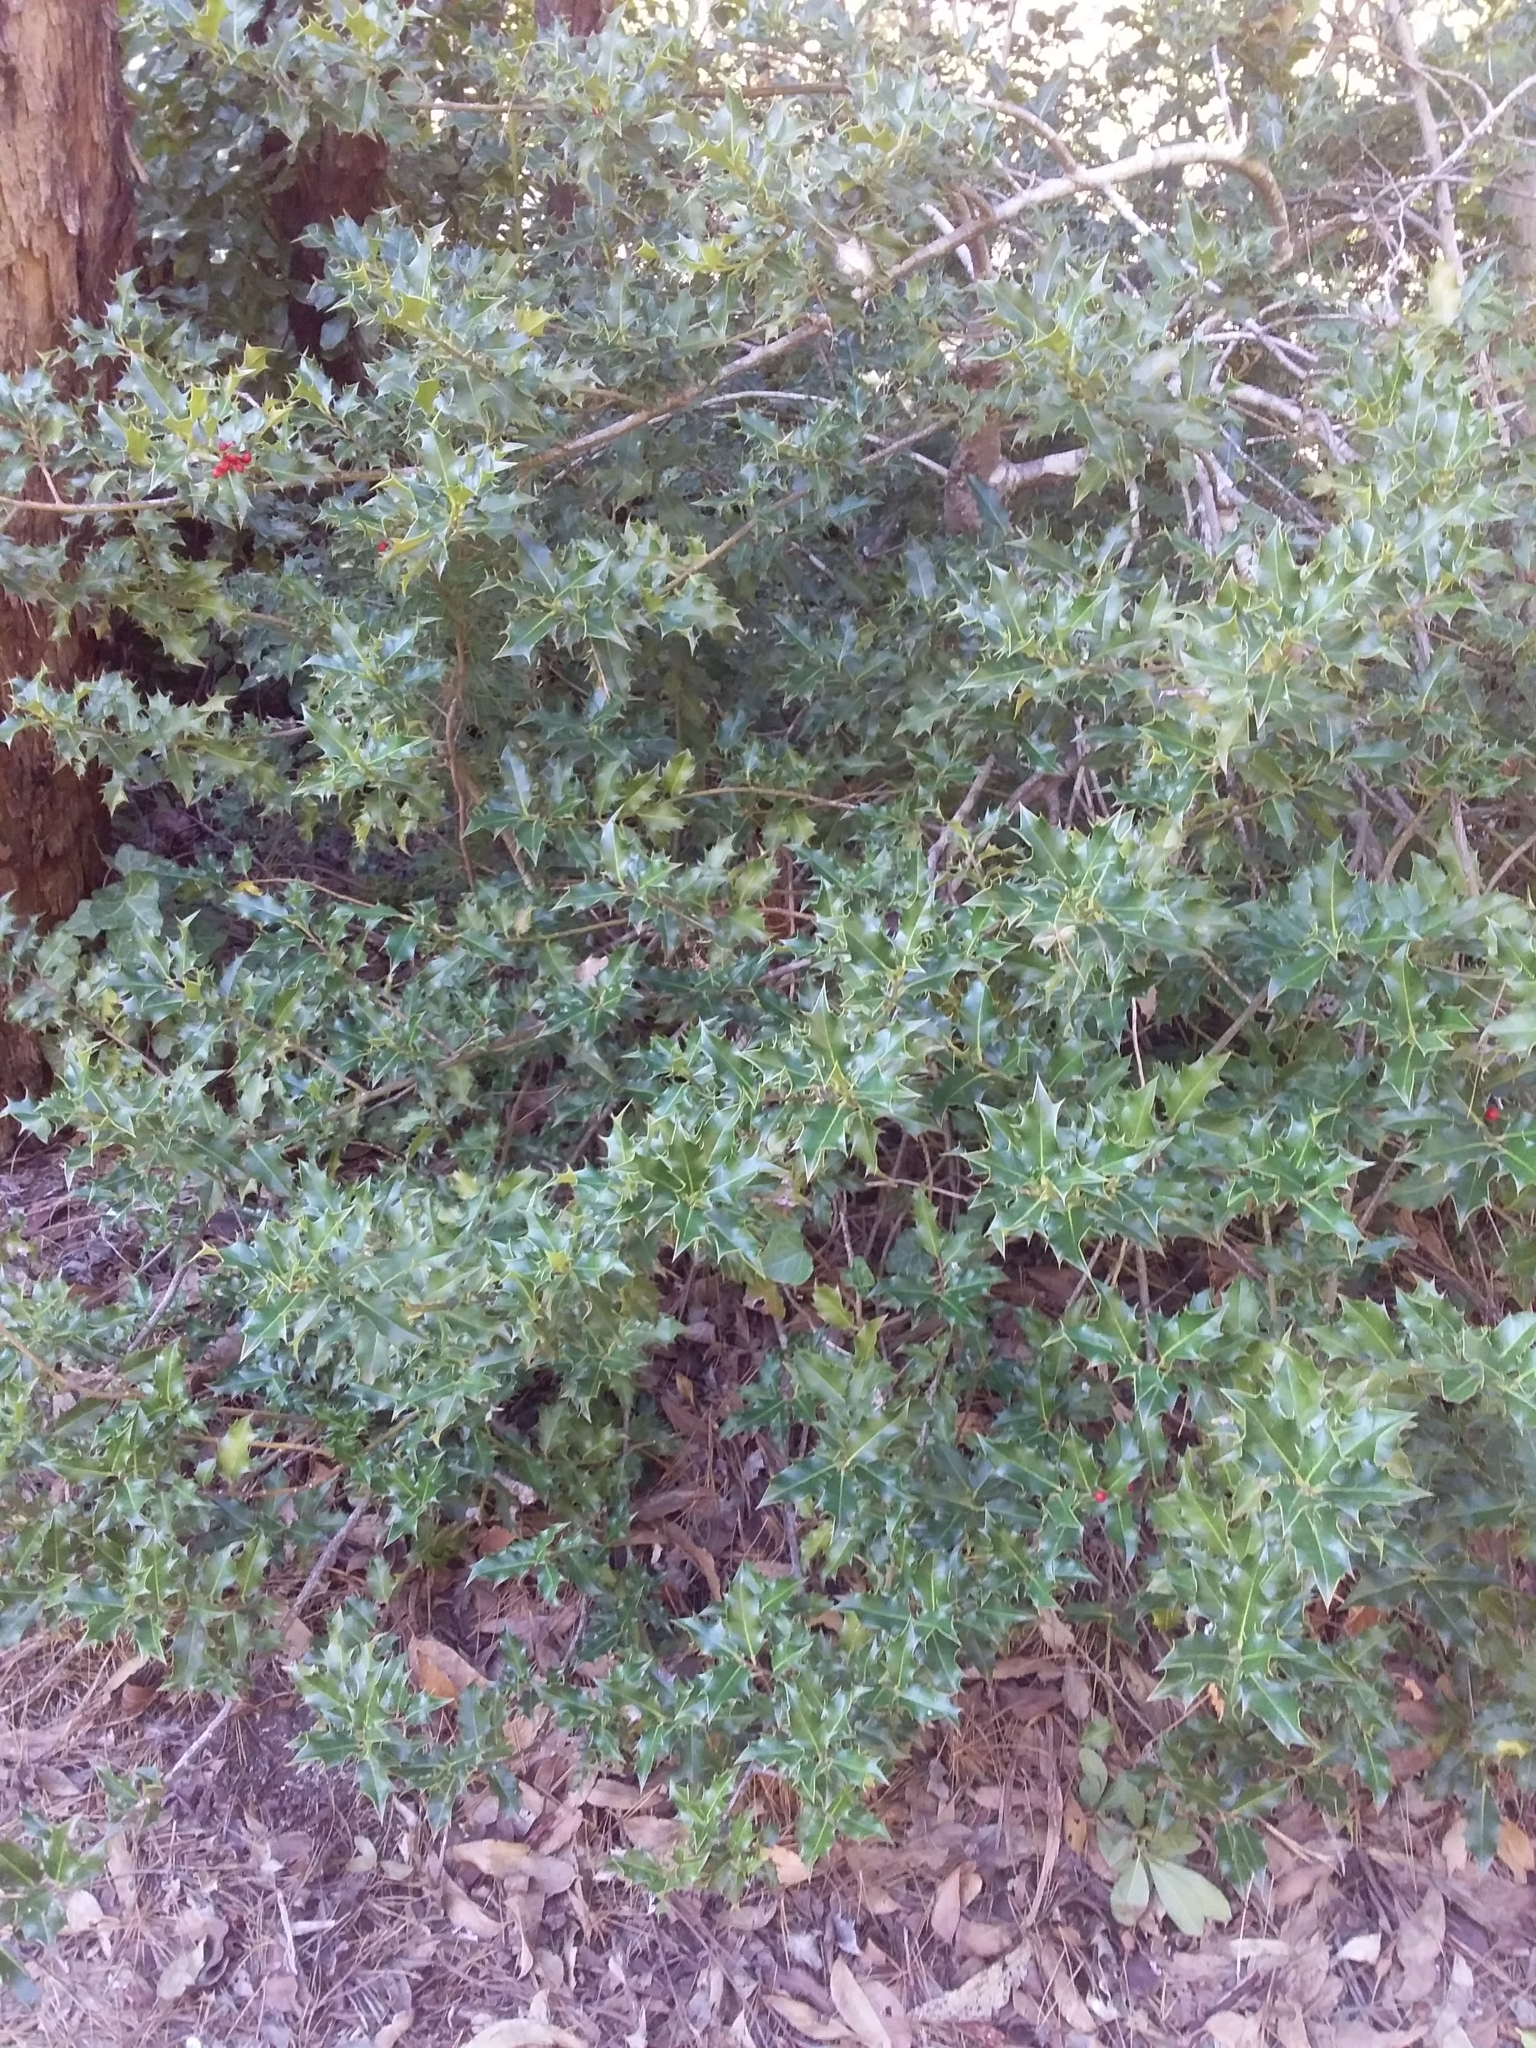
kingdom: Plantae
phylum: Tracheophyta
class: Magnoliopsida
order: Aquifoliales
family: Aquifoliaceae
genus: Ilex
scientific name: Ilex aquifolium
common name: English holly
